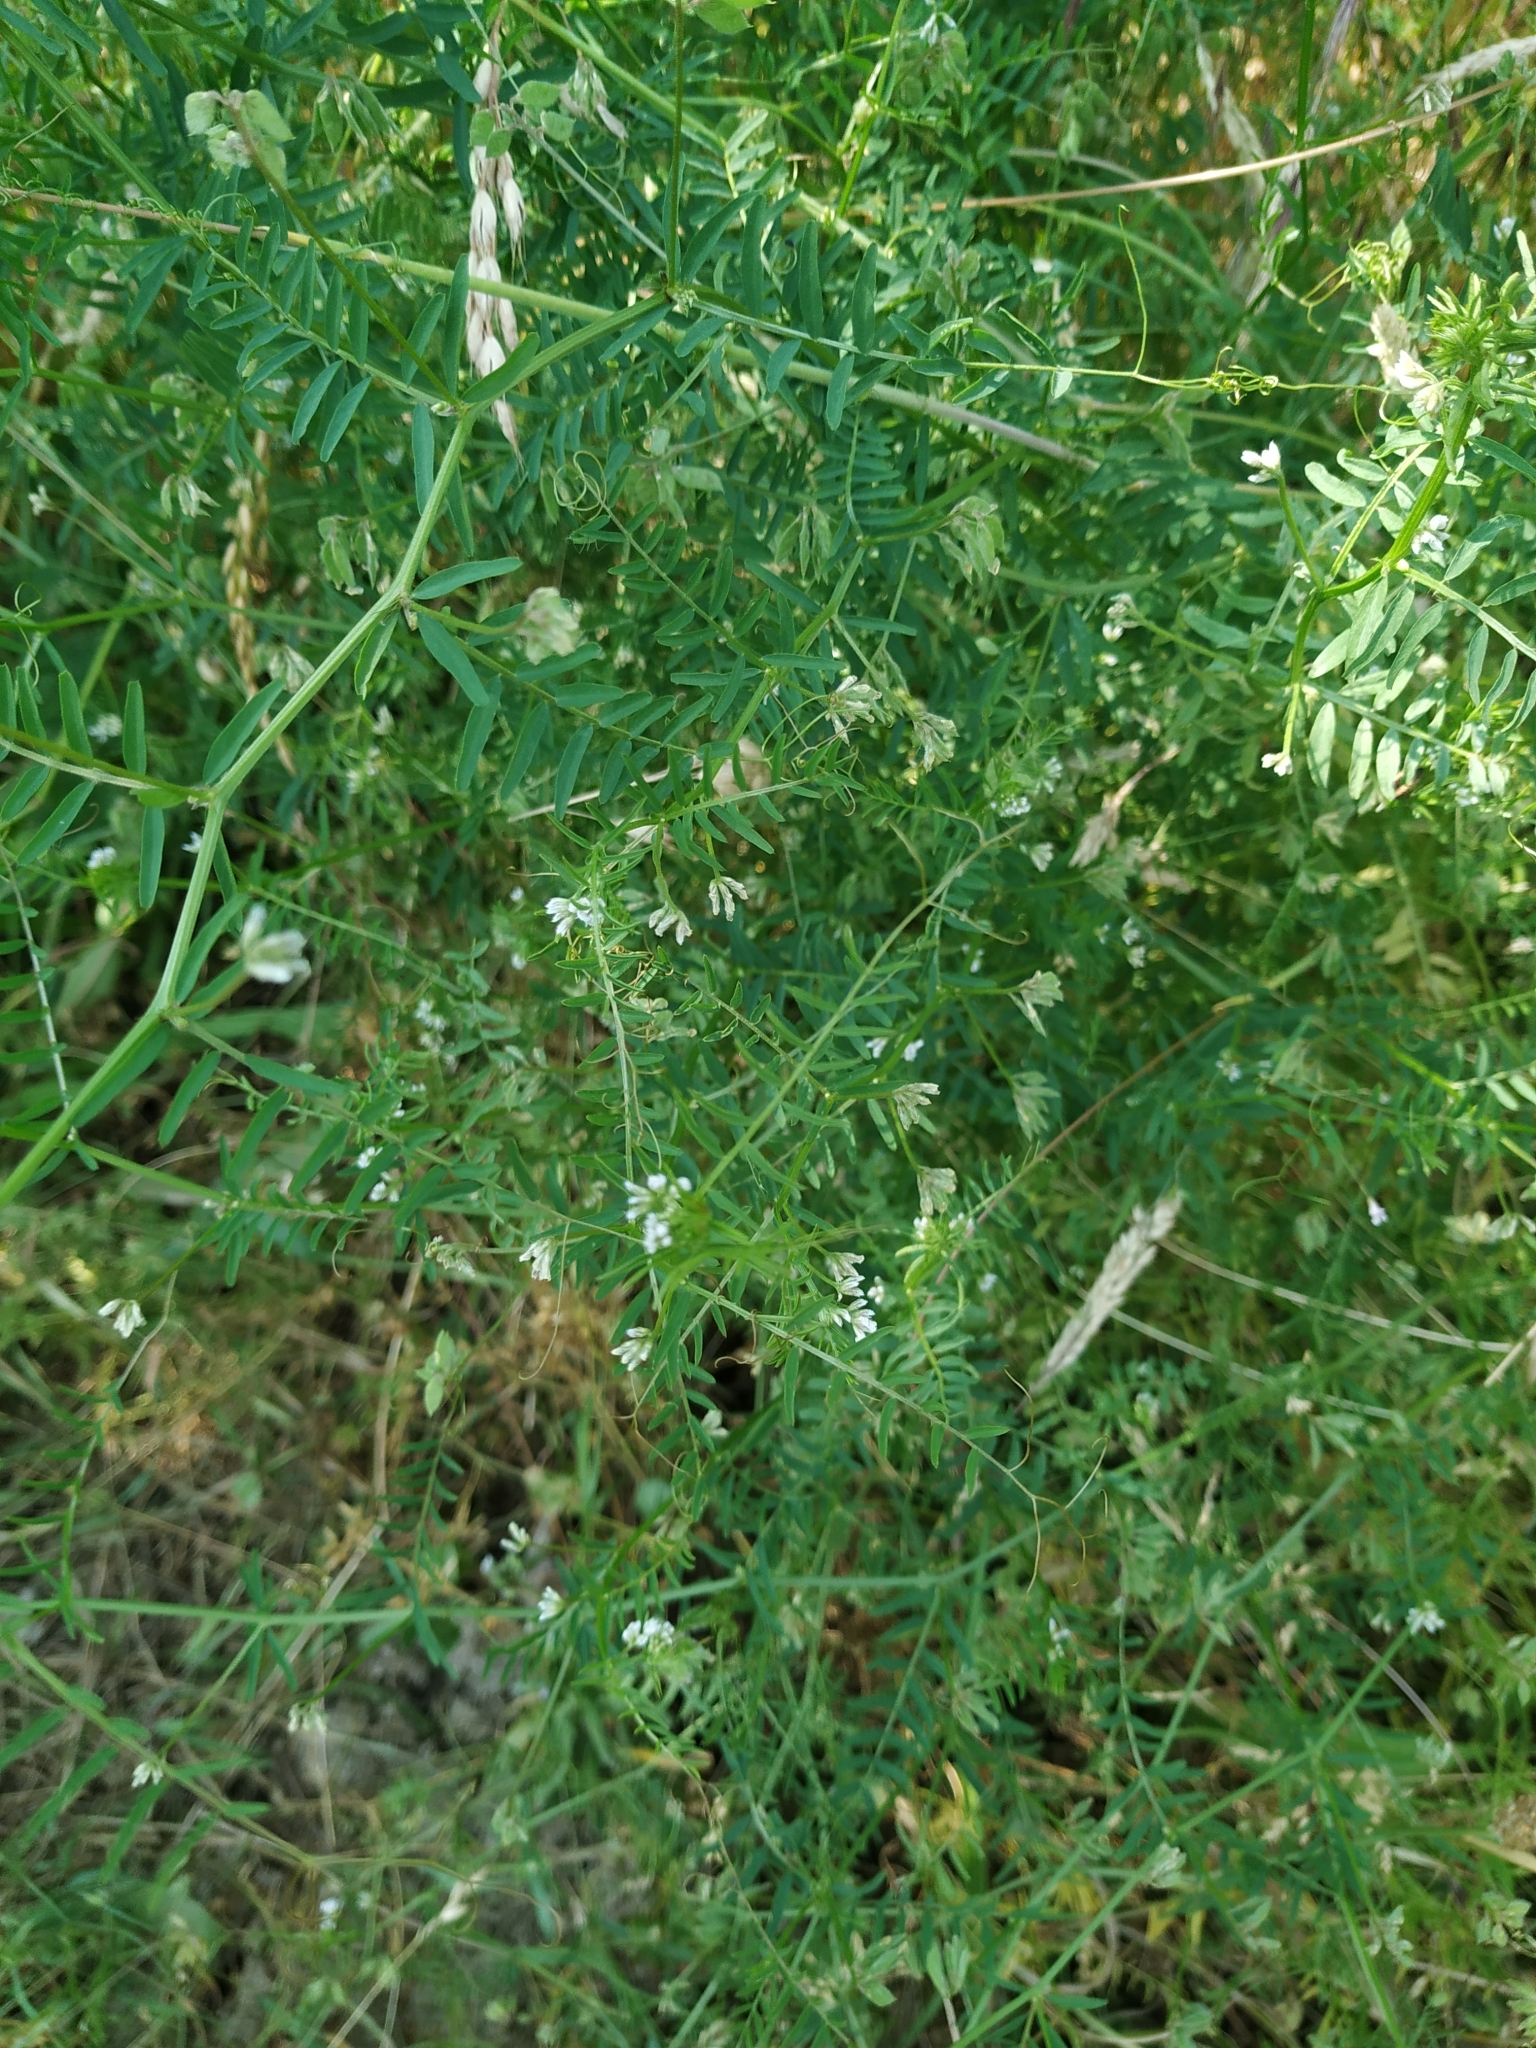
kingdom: Plantae
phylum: Tracheophyta
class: Magnoliopsida
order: Fabales
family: Fabaceae
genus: Vicia
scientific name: Vicia hirsuta
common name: Tiny vetch
